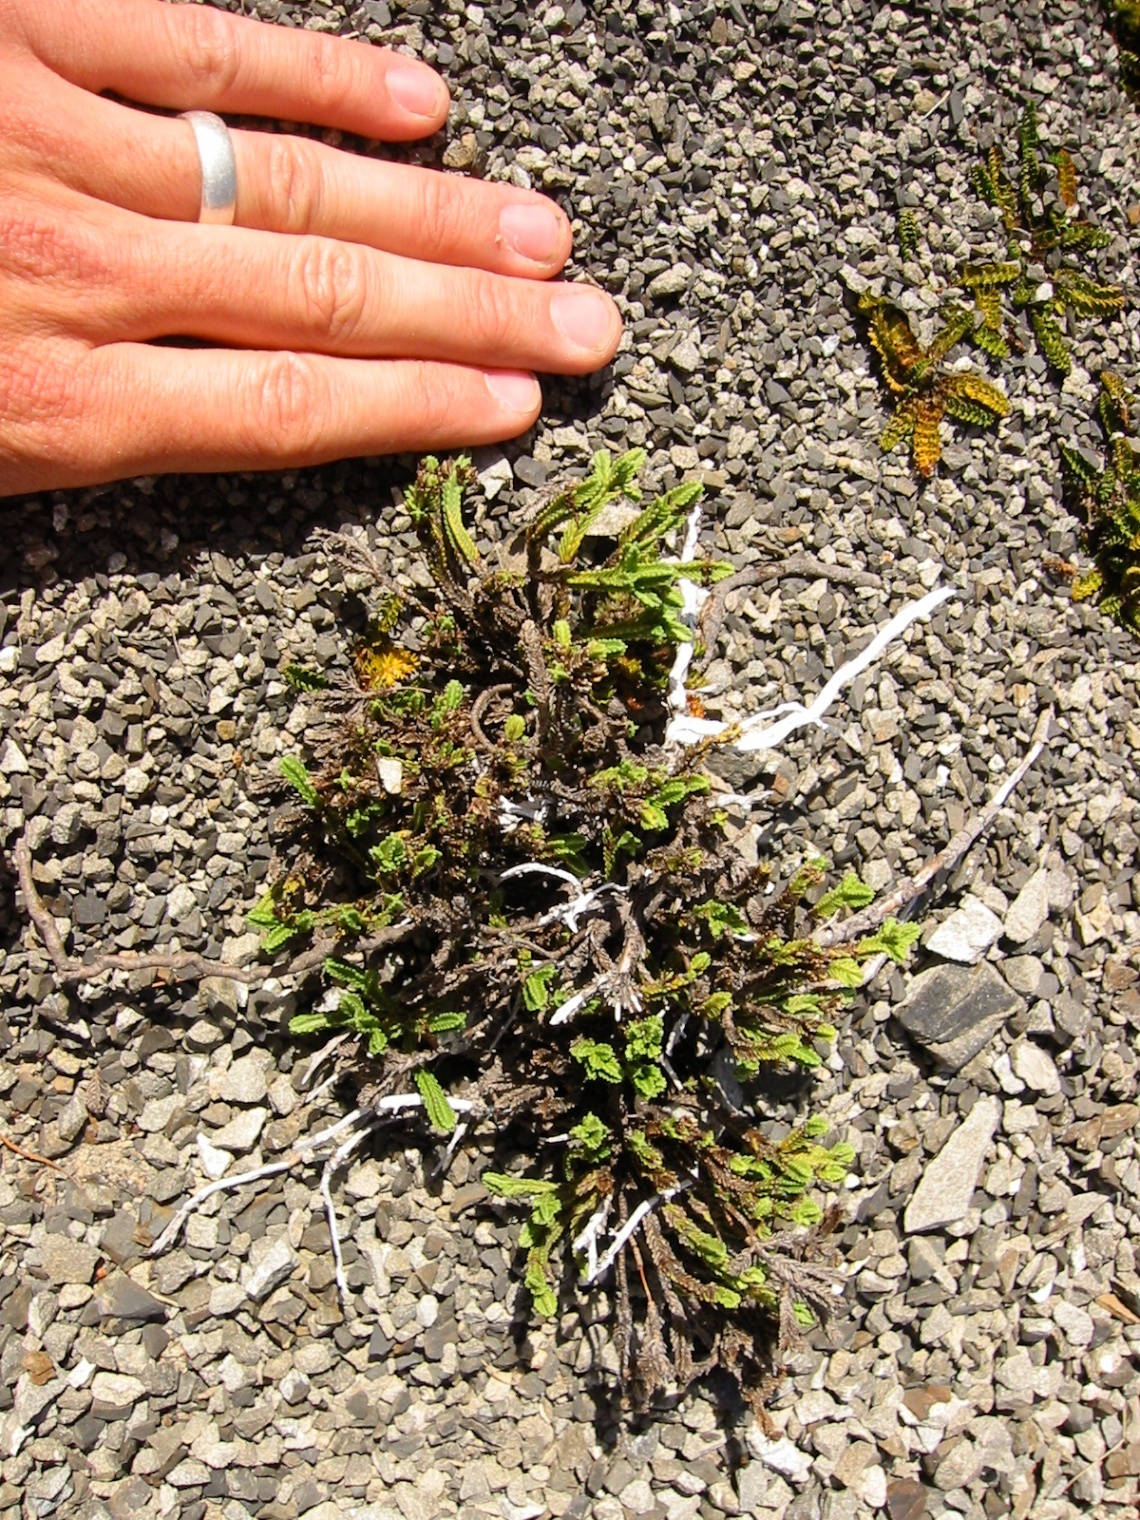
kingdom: Plantae
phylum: Tracheophyta
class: Magnoliopsida
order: Lamiales
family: Plantaginaceae
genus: Veronica
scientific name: Veronica hookeri
